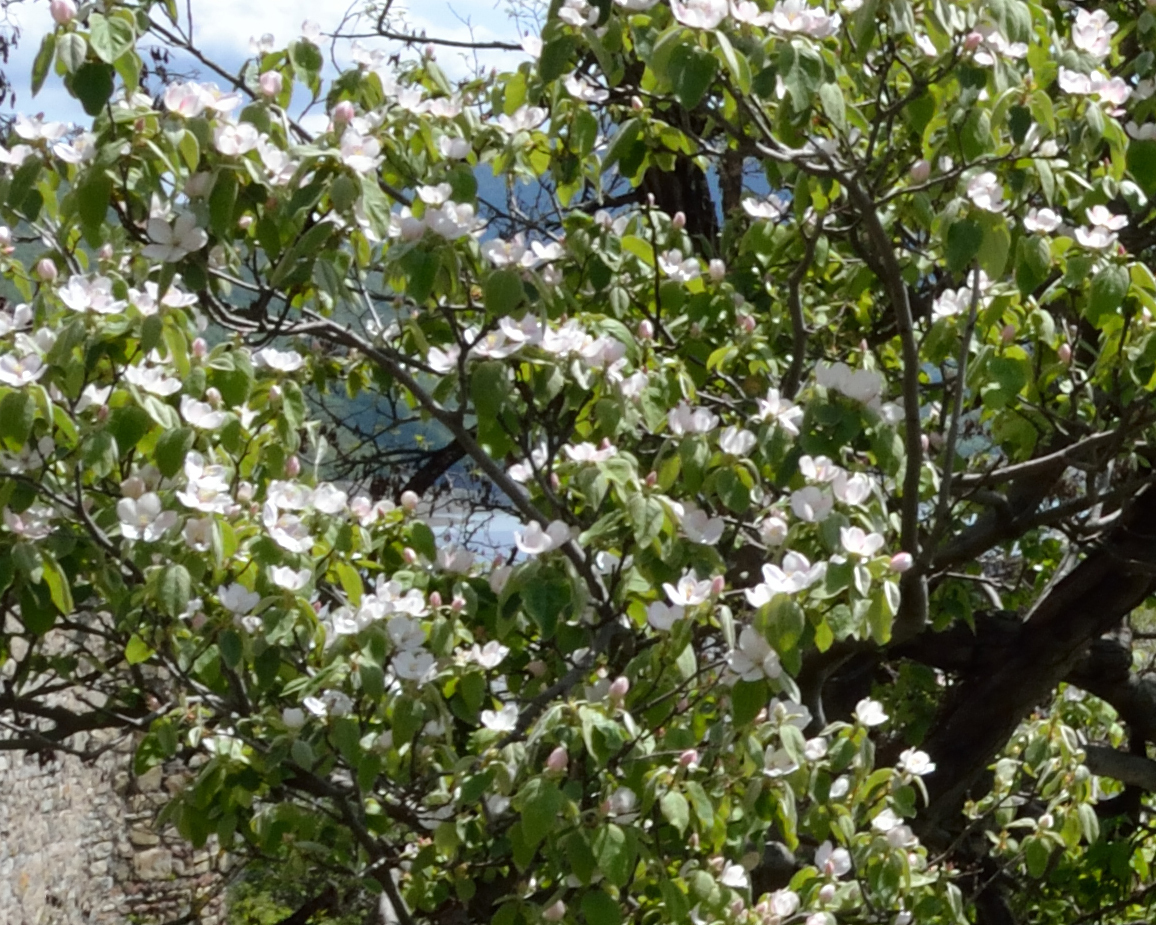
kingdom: Plantae
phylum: Tracheophyta
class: Magnoliopsida
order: Rosales
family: Rosaceae
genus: Cydonia
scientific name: Cydonia oblonga
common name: Quince
